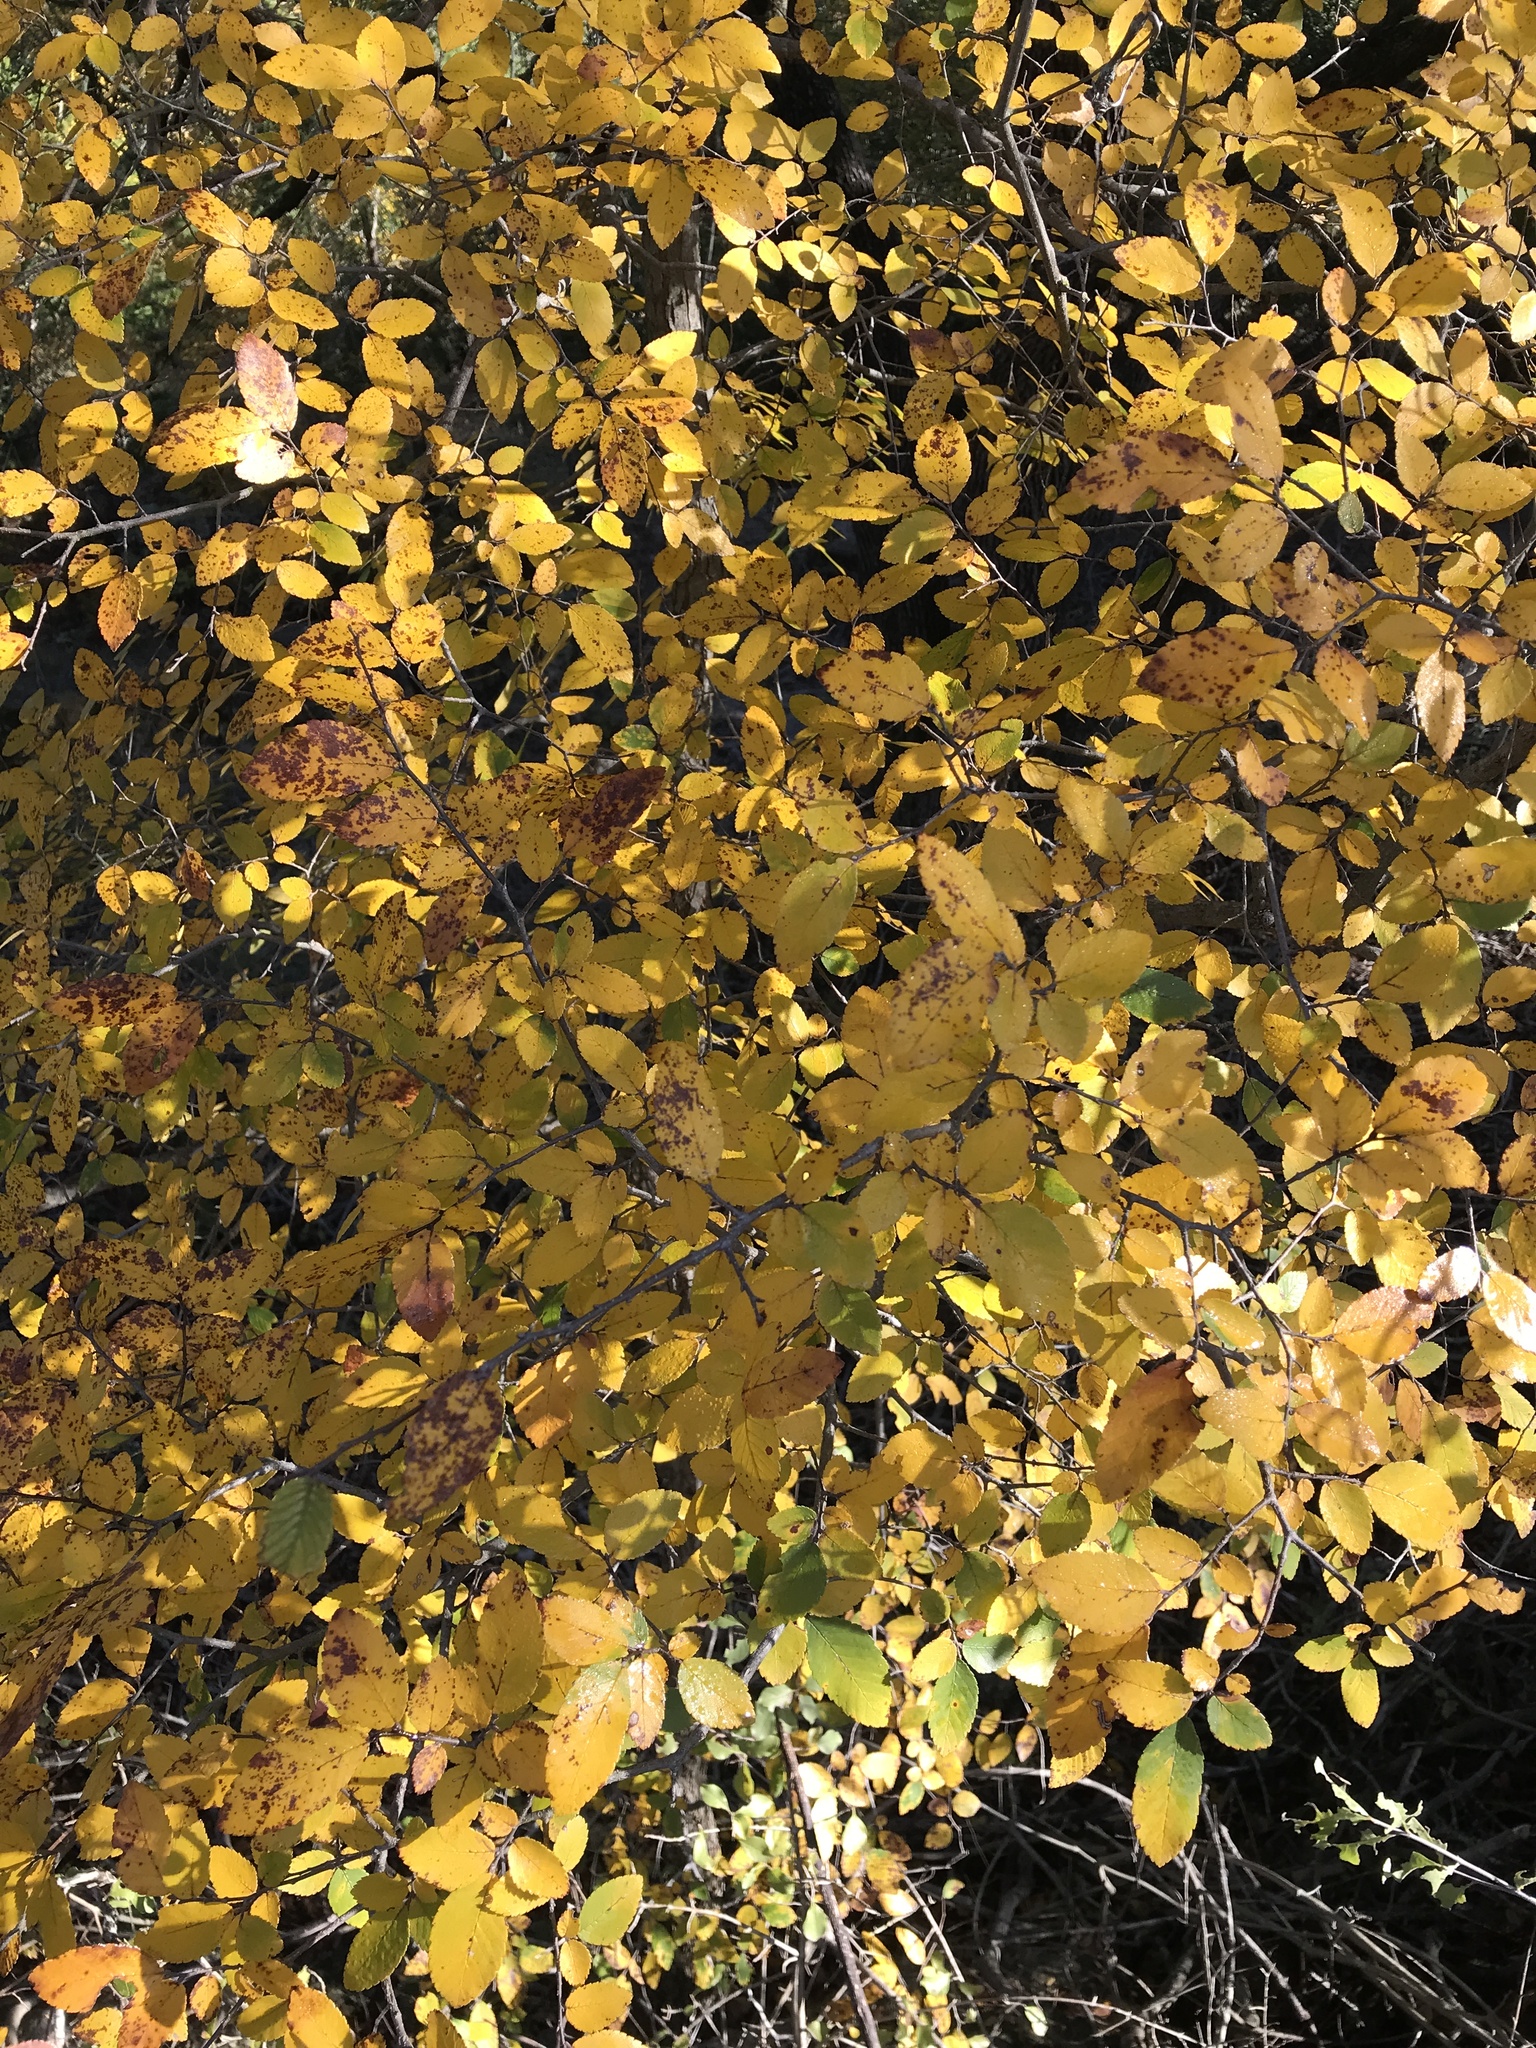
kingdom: Plantae
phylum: Tracheophyta
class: Magnoliopsida
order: Rosales
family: Ulmaceae
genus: Ulmus
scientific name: Ulmus crassifolia
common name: Basket elm
